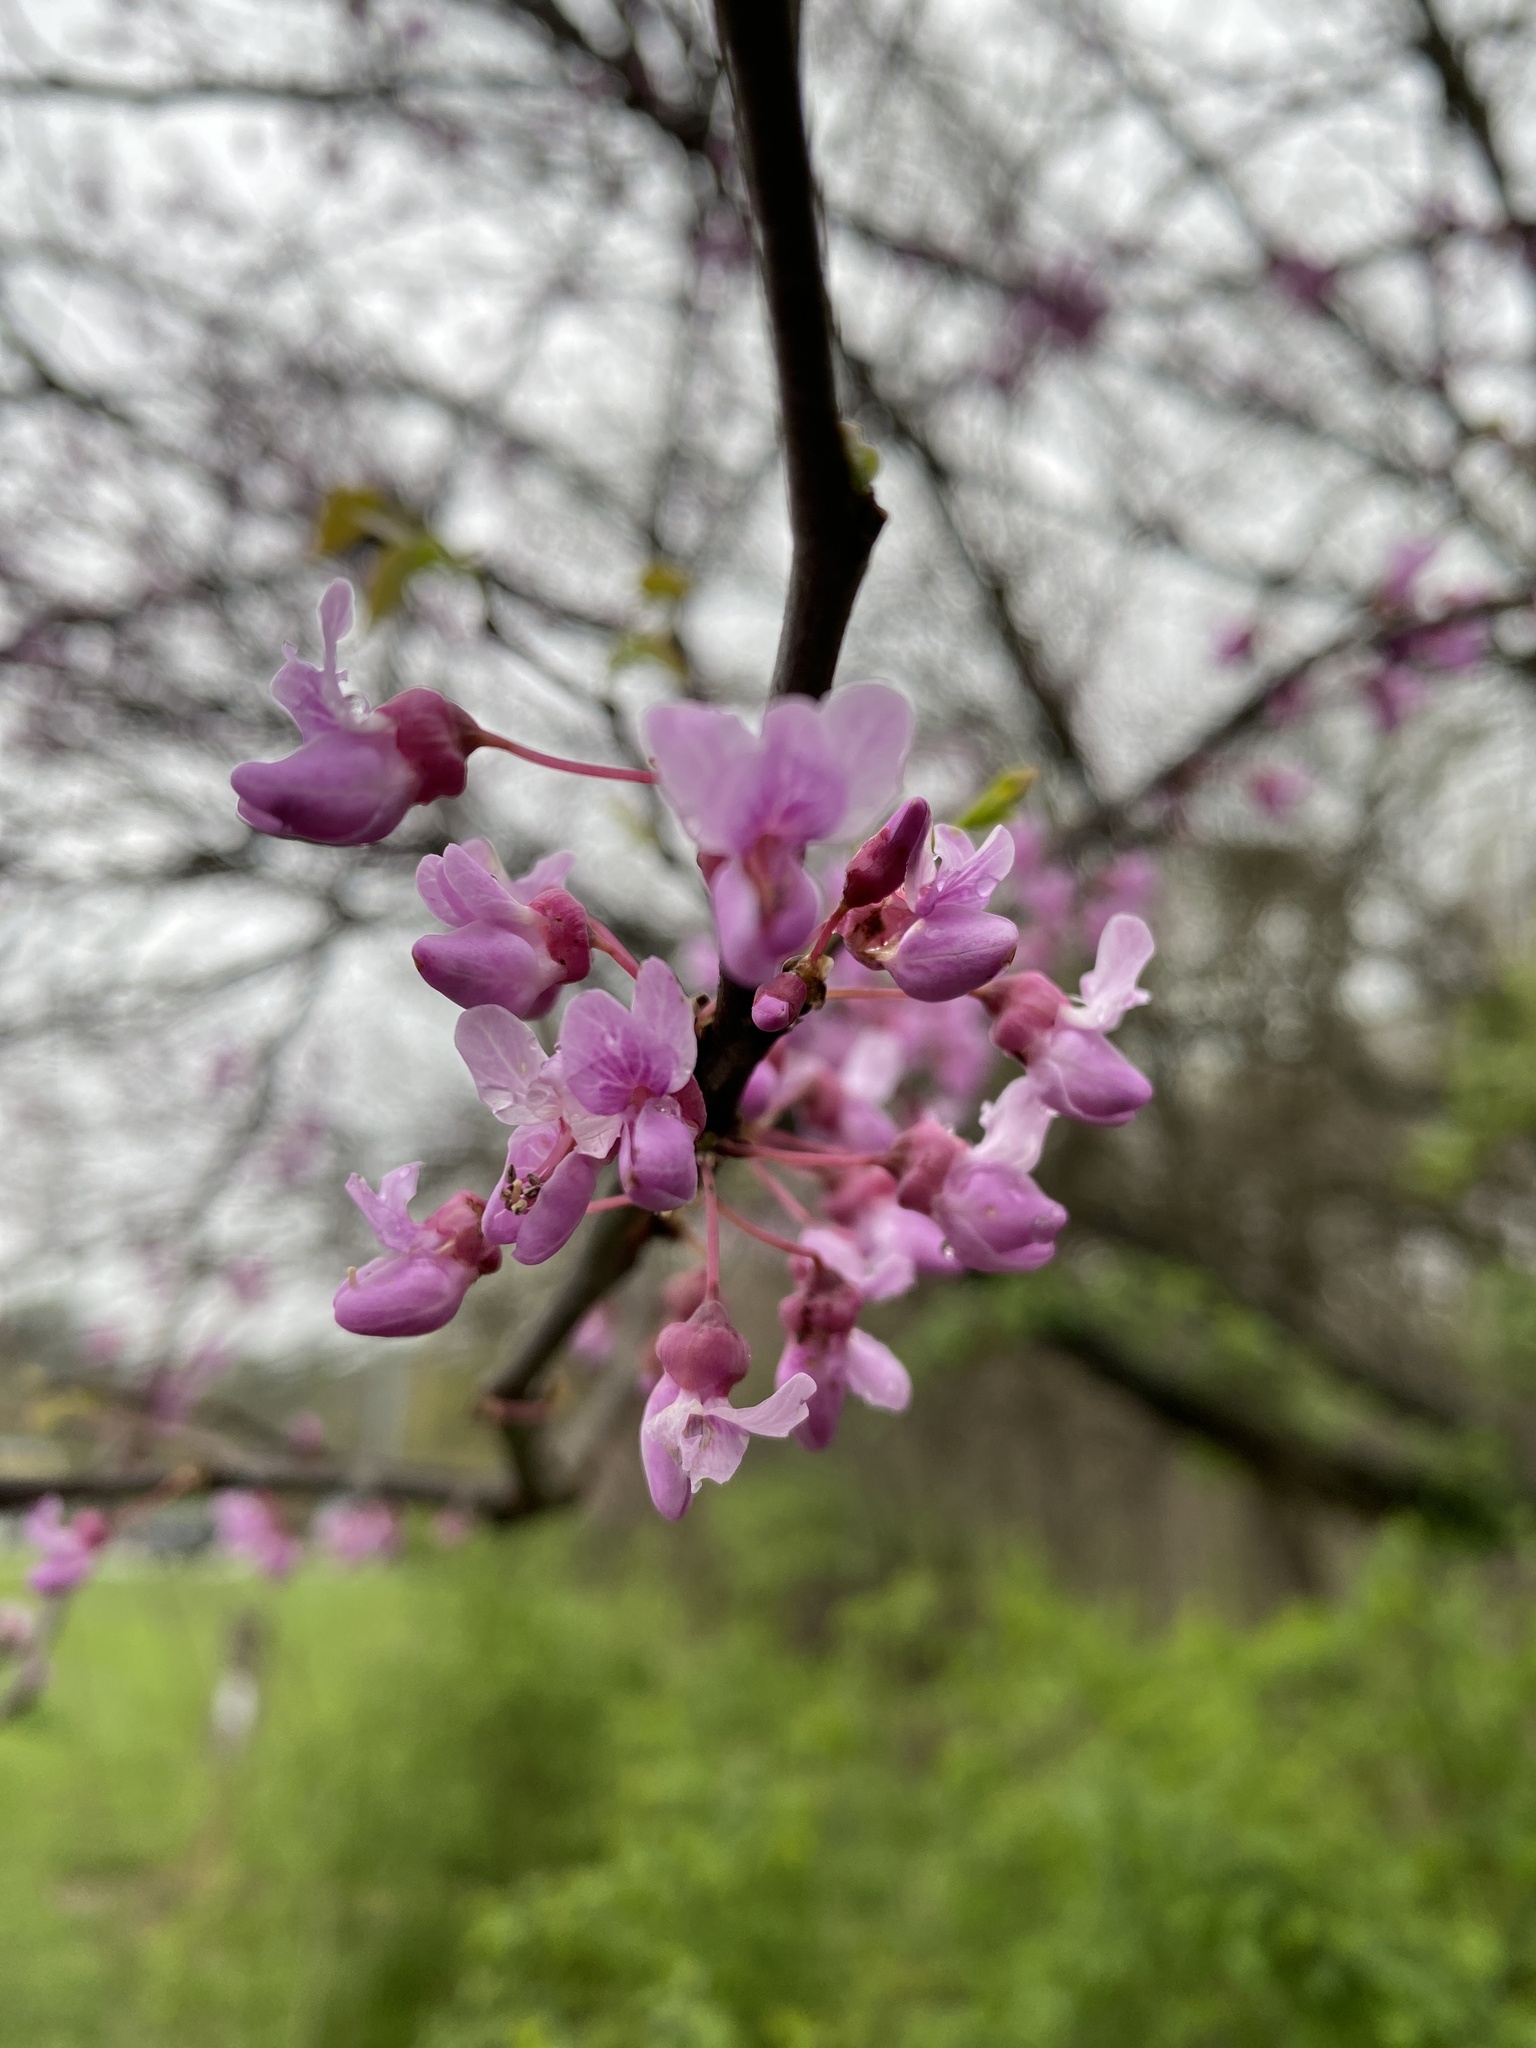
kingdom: Plantae
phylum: Tracheophyta
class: Magnoliopsida
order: Fabales
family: Fabaceae
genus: Cercis
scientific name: Cercis canadensis
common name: Eastern redbud
